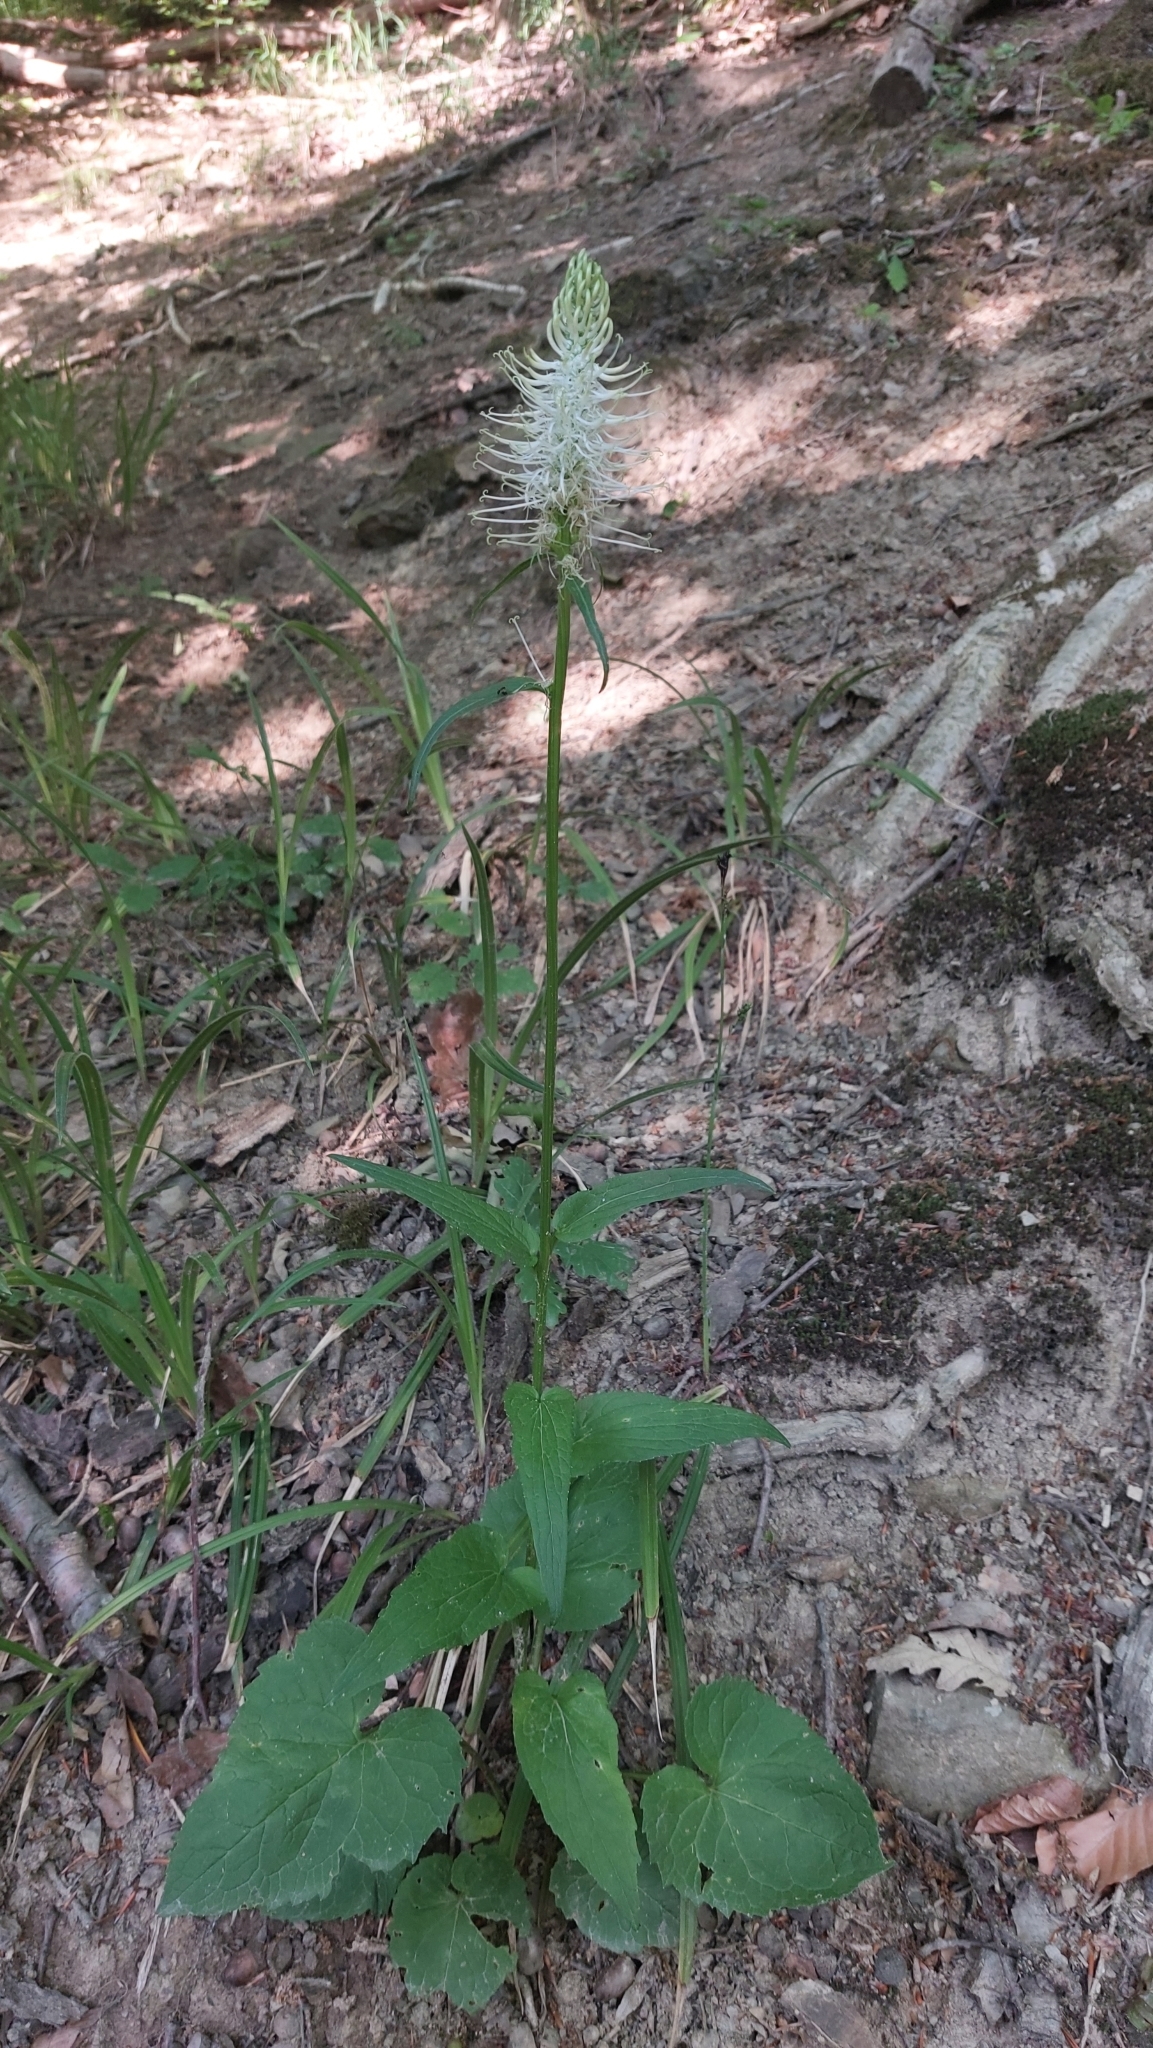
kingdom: Plantae
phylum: Tracheophyta
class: Magnoliopsida
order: Asterales
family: Campanulaceae
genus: Phyteuma
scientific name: Phyteuma spicatum
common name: Spiked rampion
